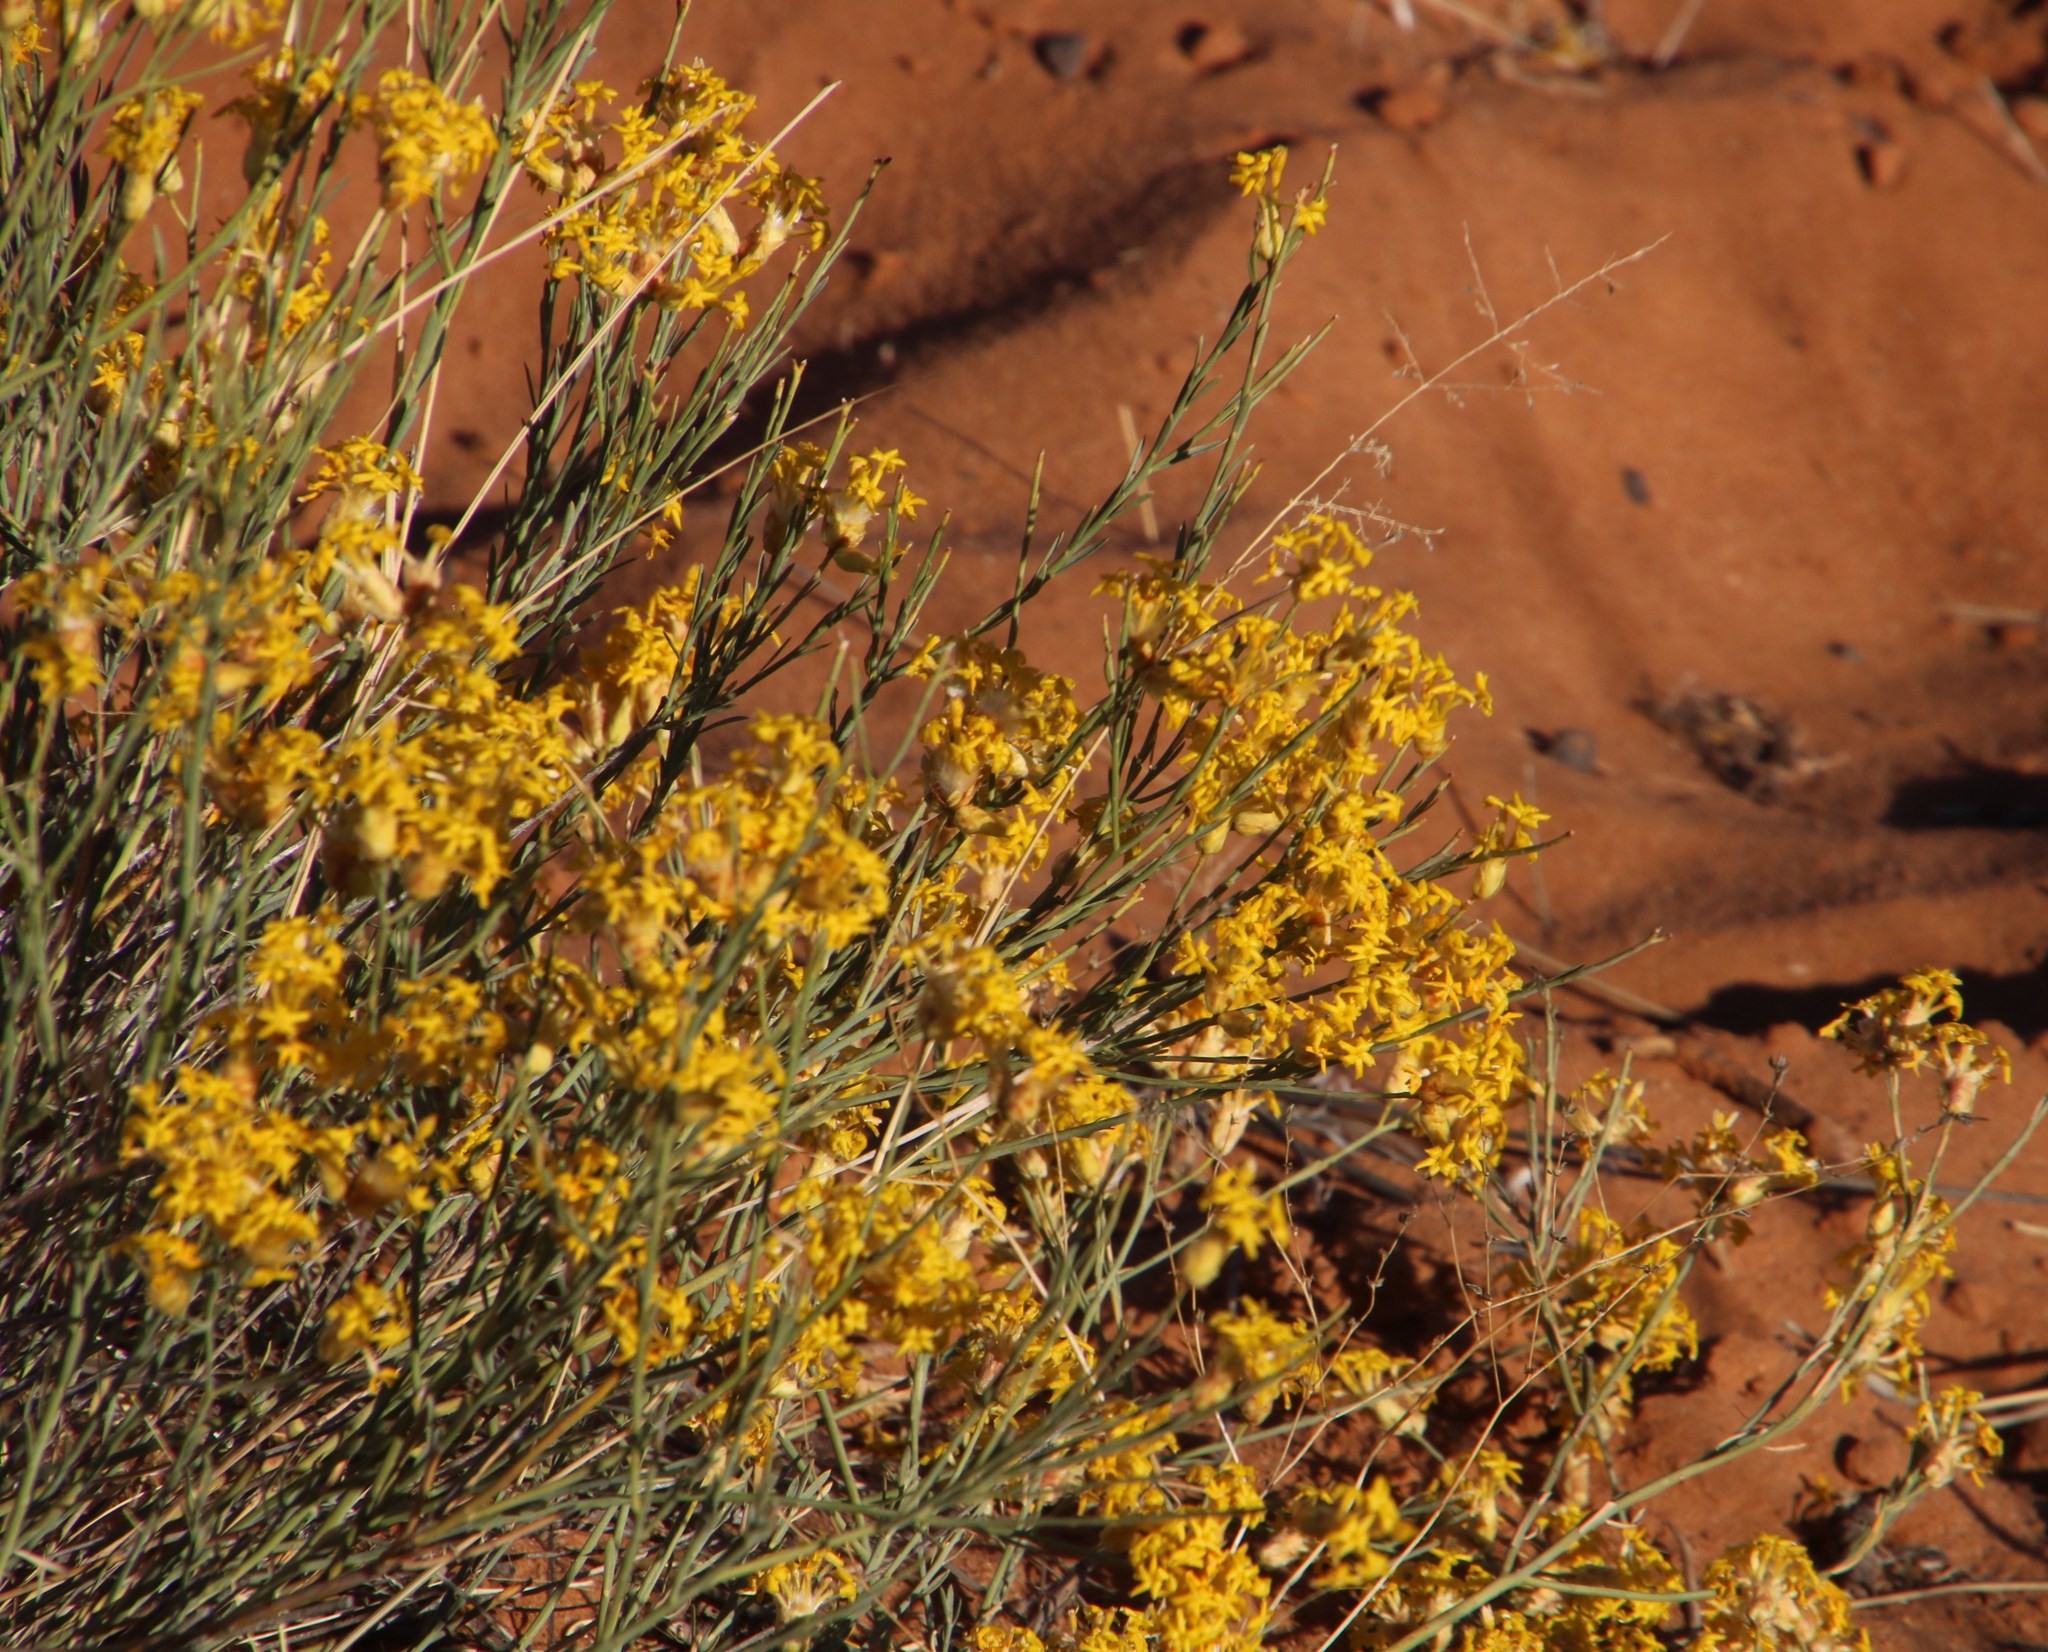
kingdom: Plantae
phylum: Tracheophyta
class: Magnoliopsida
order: Malvales
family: Thymelaeaceae
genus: Gnidia
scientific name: Gnidia polycephala
